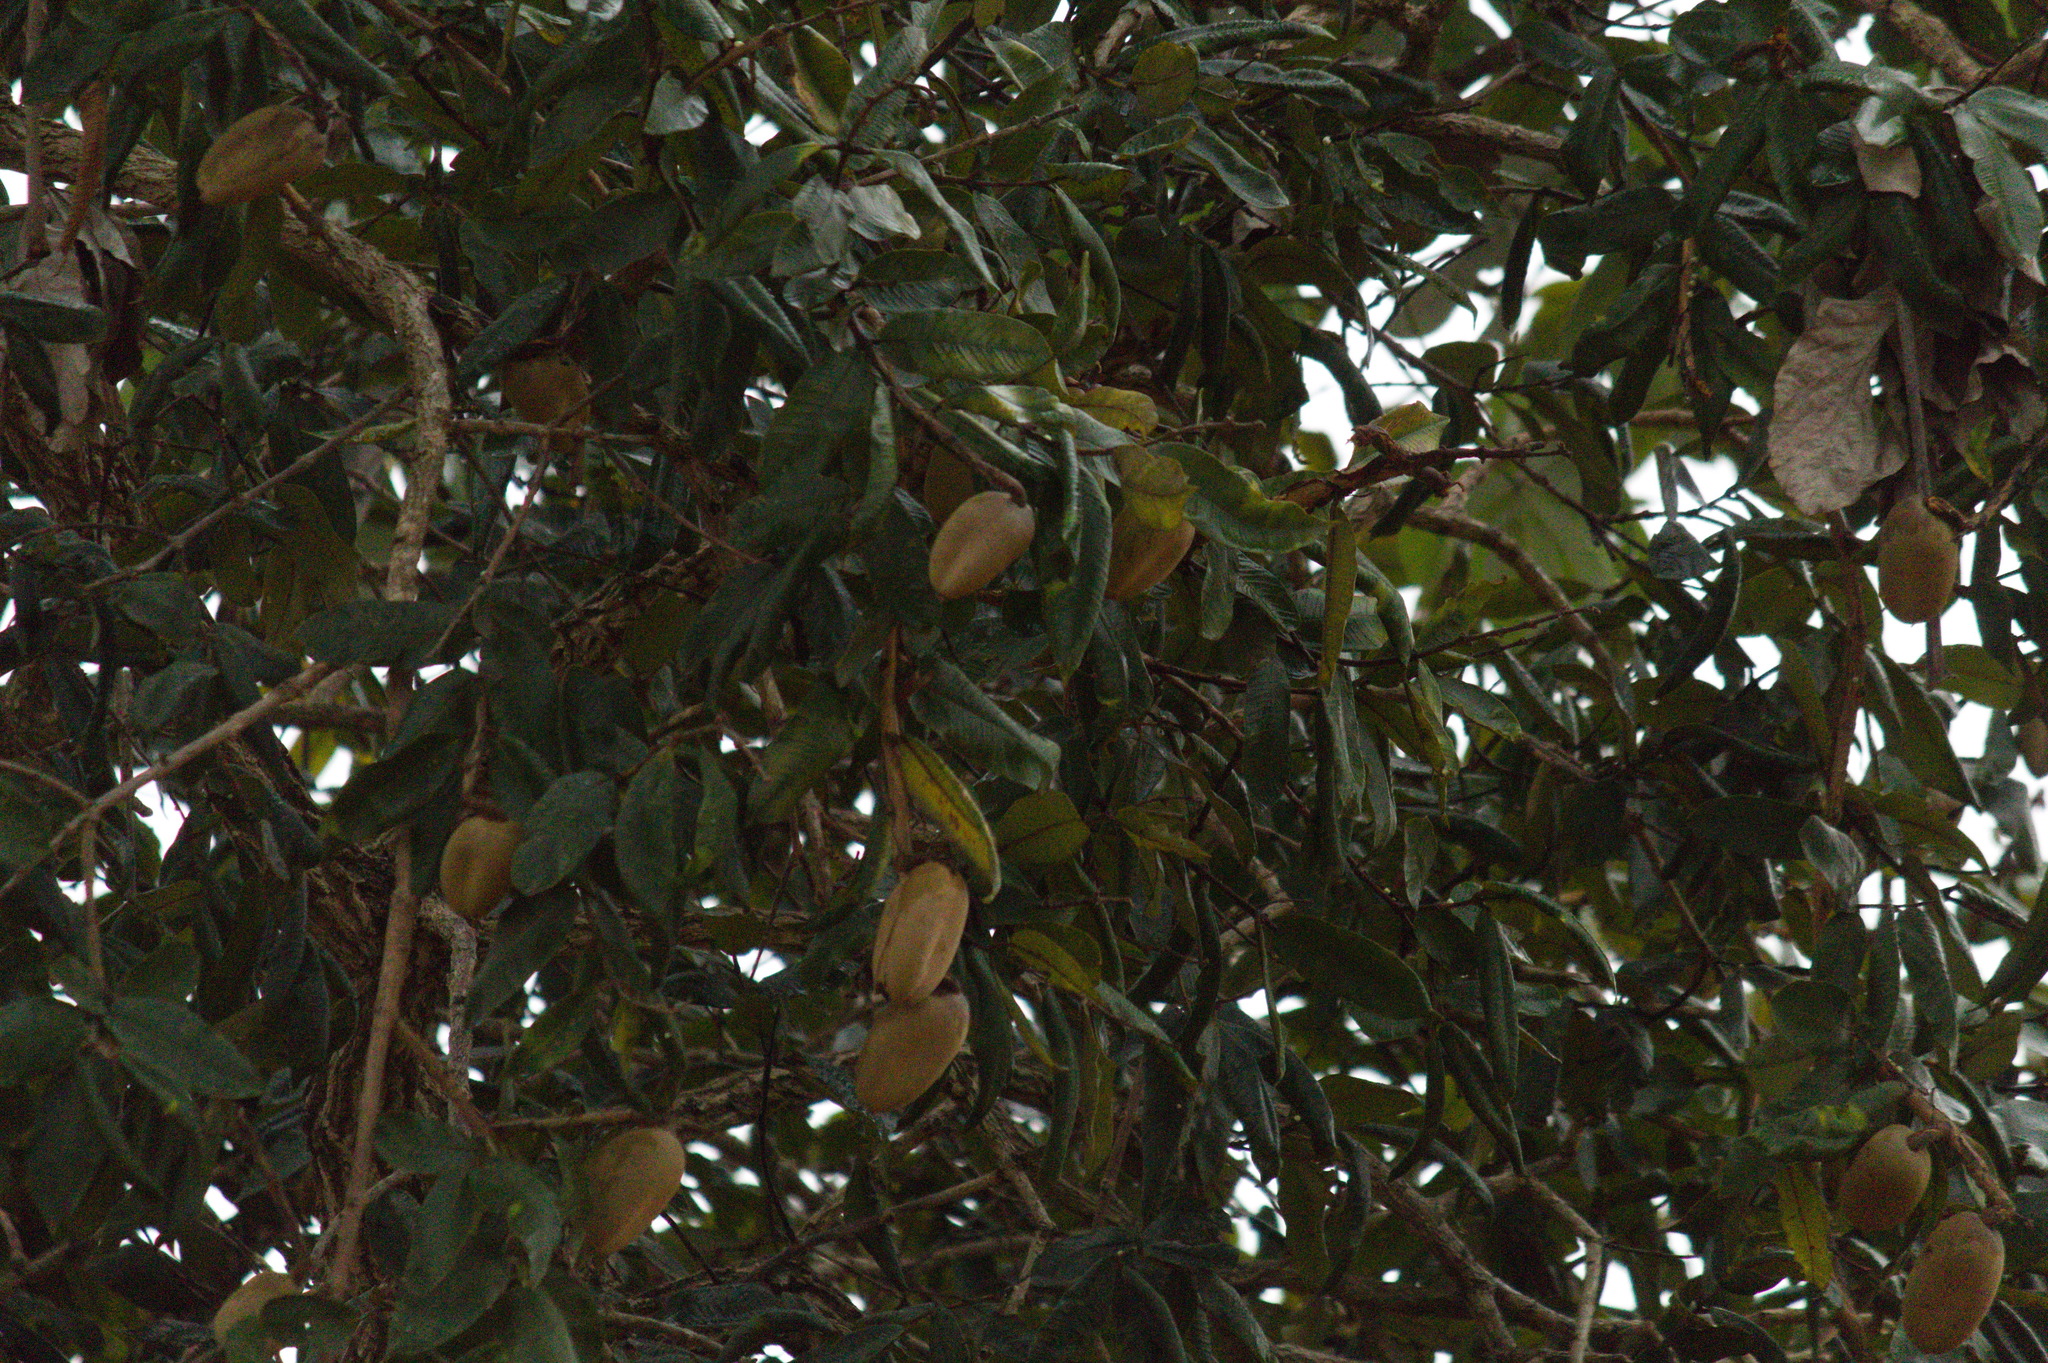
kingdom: Plantae
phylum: Tracheophyta
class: Magnoliopsida
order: Myrtales
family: Vochysiaceae
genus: Qualea
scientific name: Qualea grandiflora
